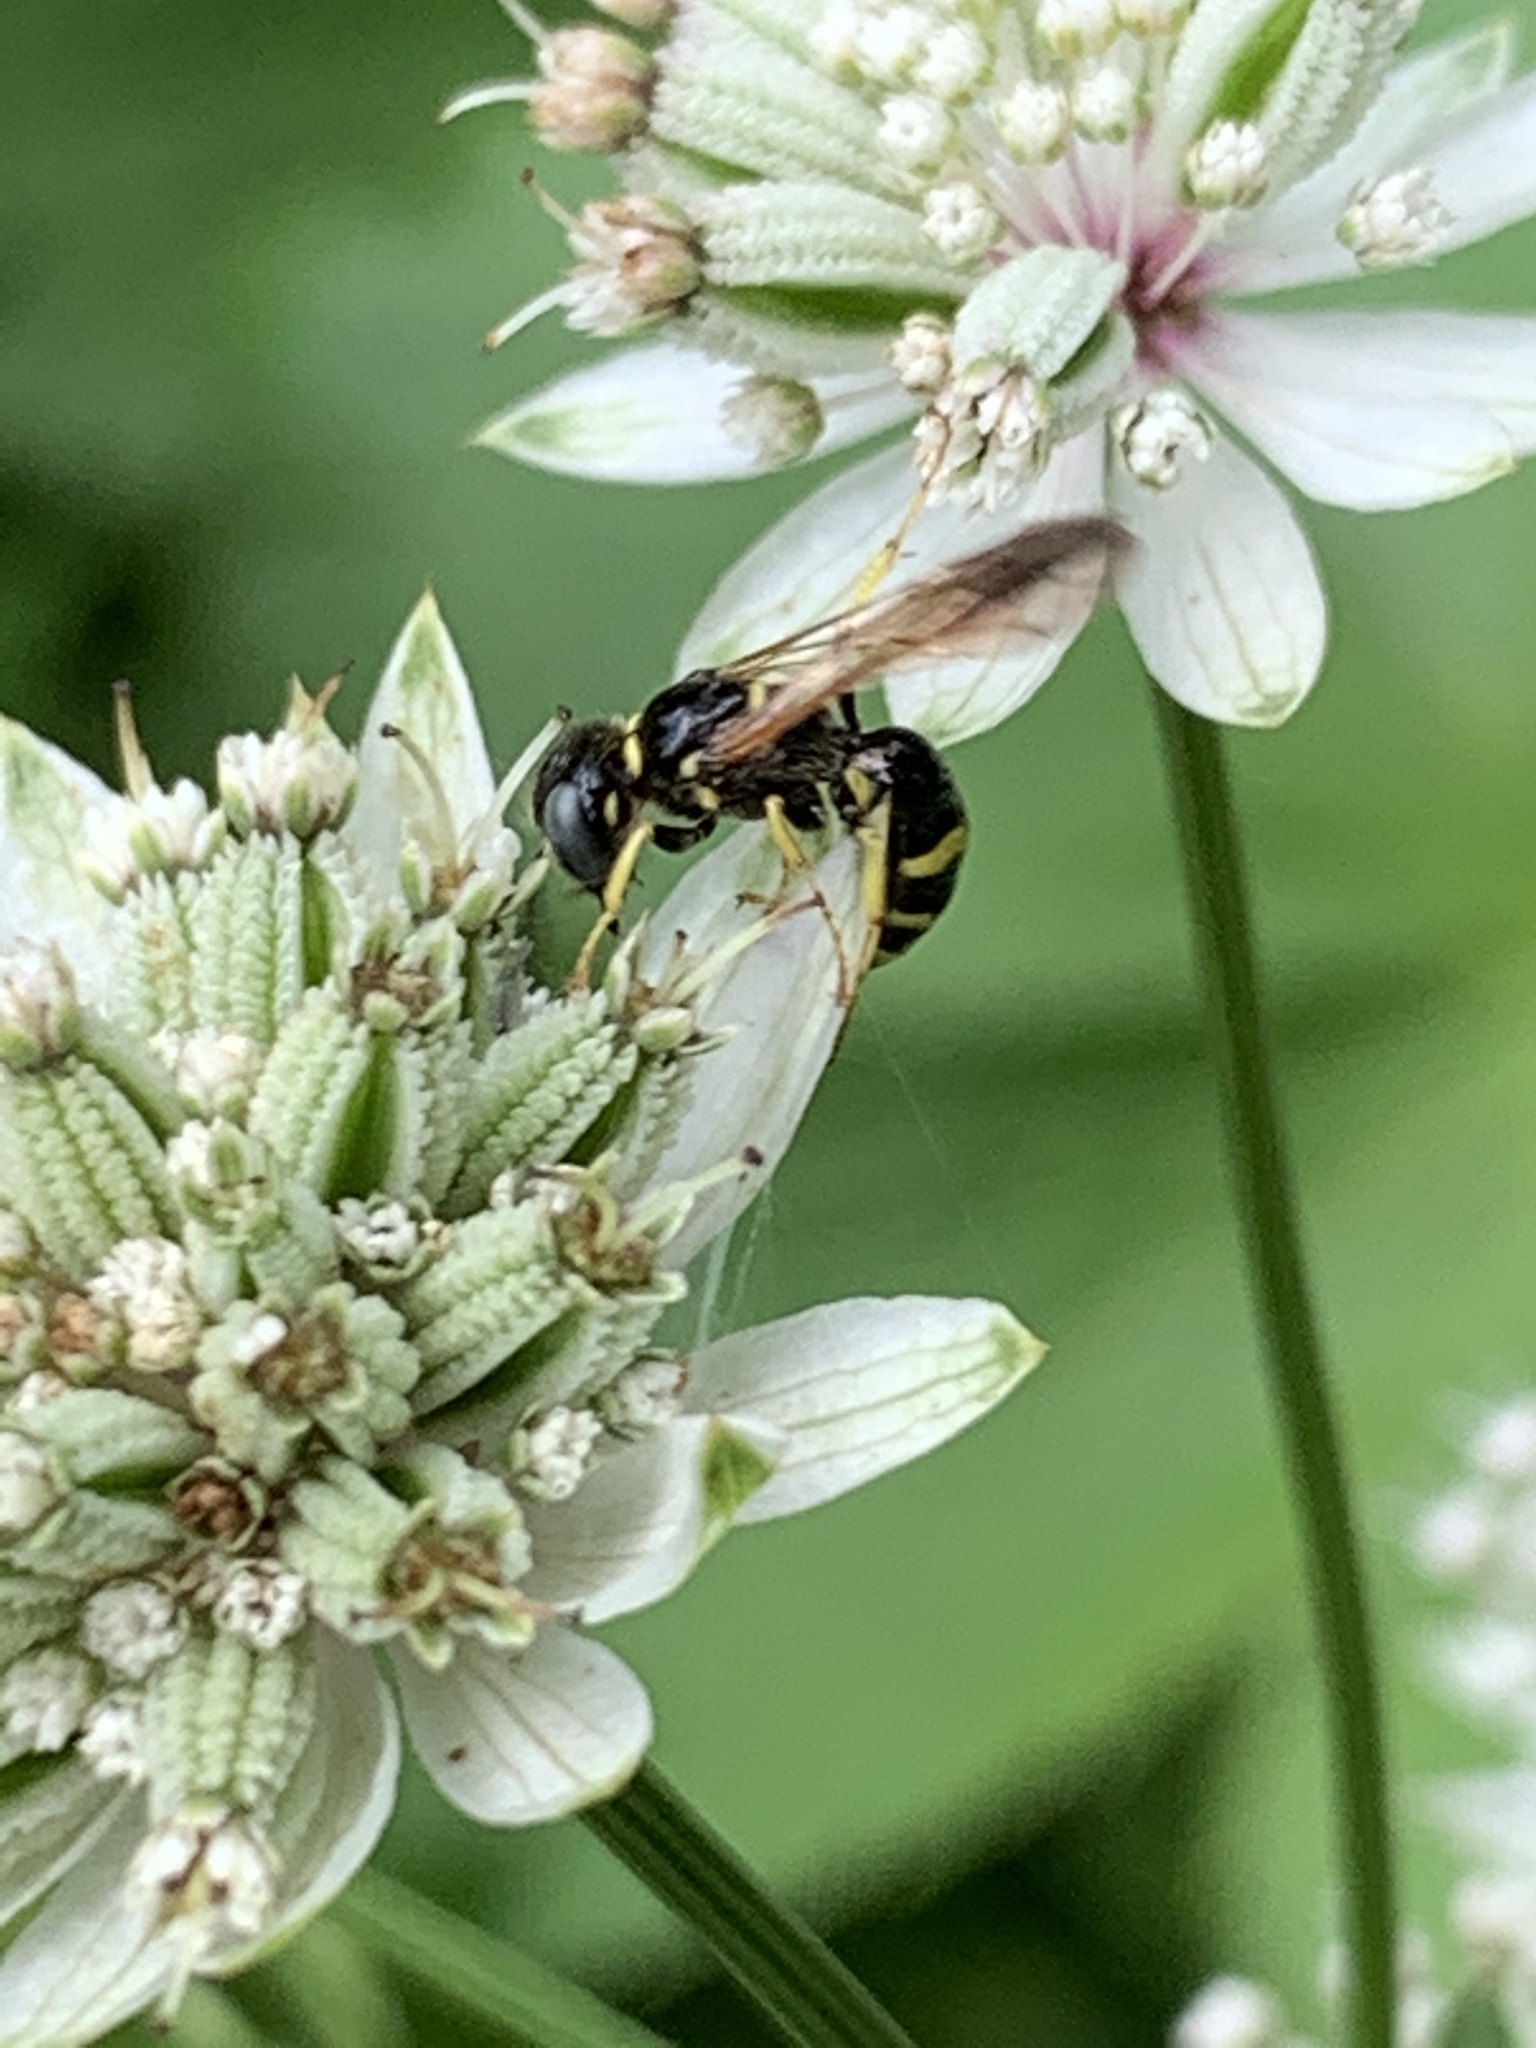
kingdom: Animalia
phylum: Arthropoda
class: Insecta
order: Hymenoptera
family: Crabronidae
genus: Philanthus
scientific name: Philanthus bilunatus
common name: Two moons beewolf
